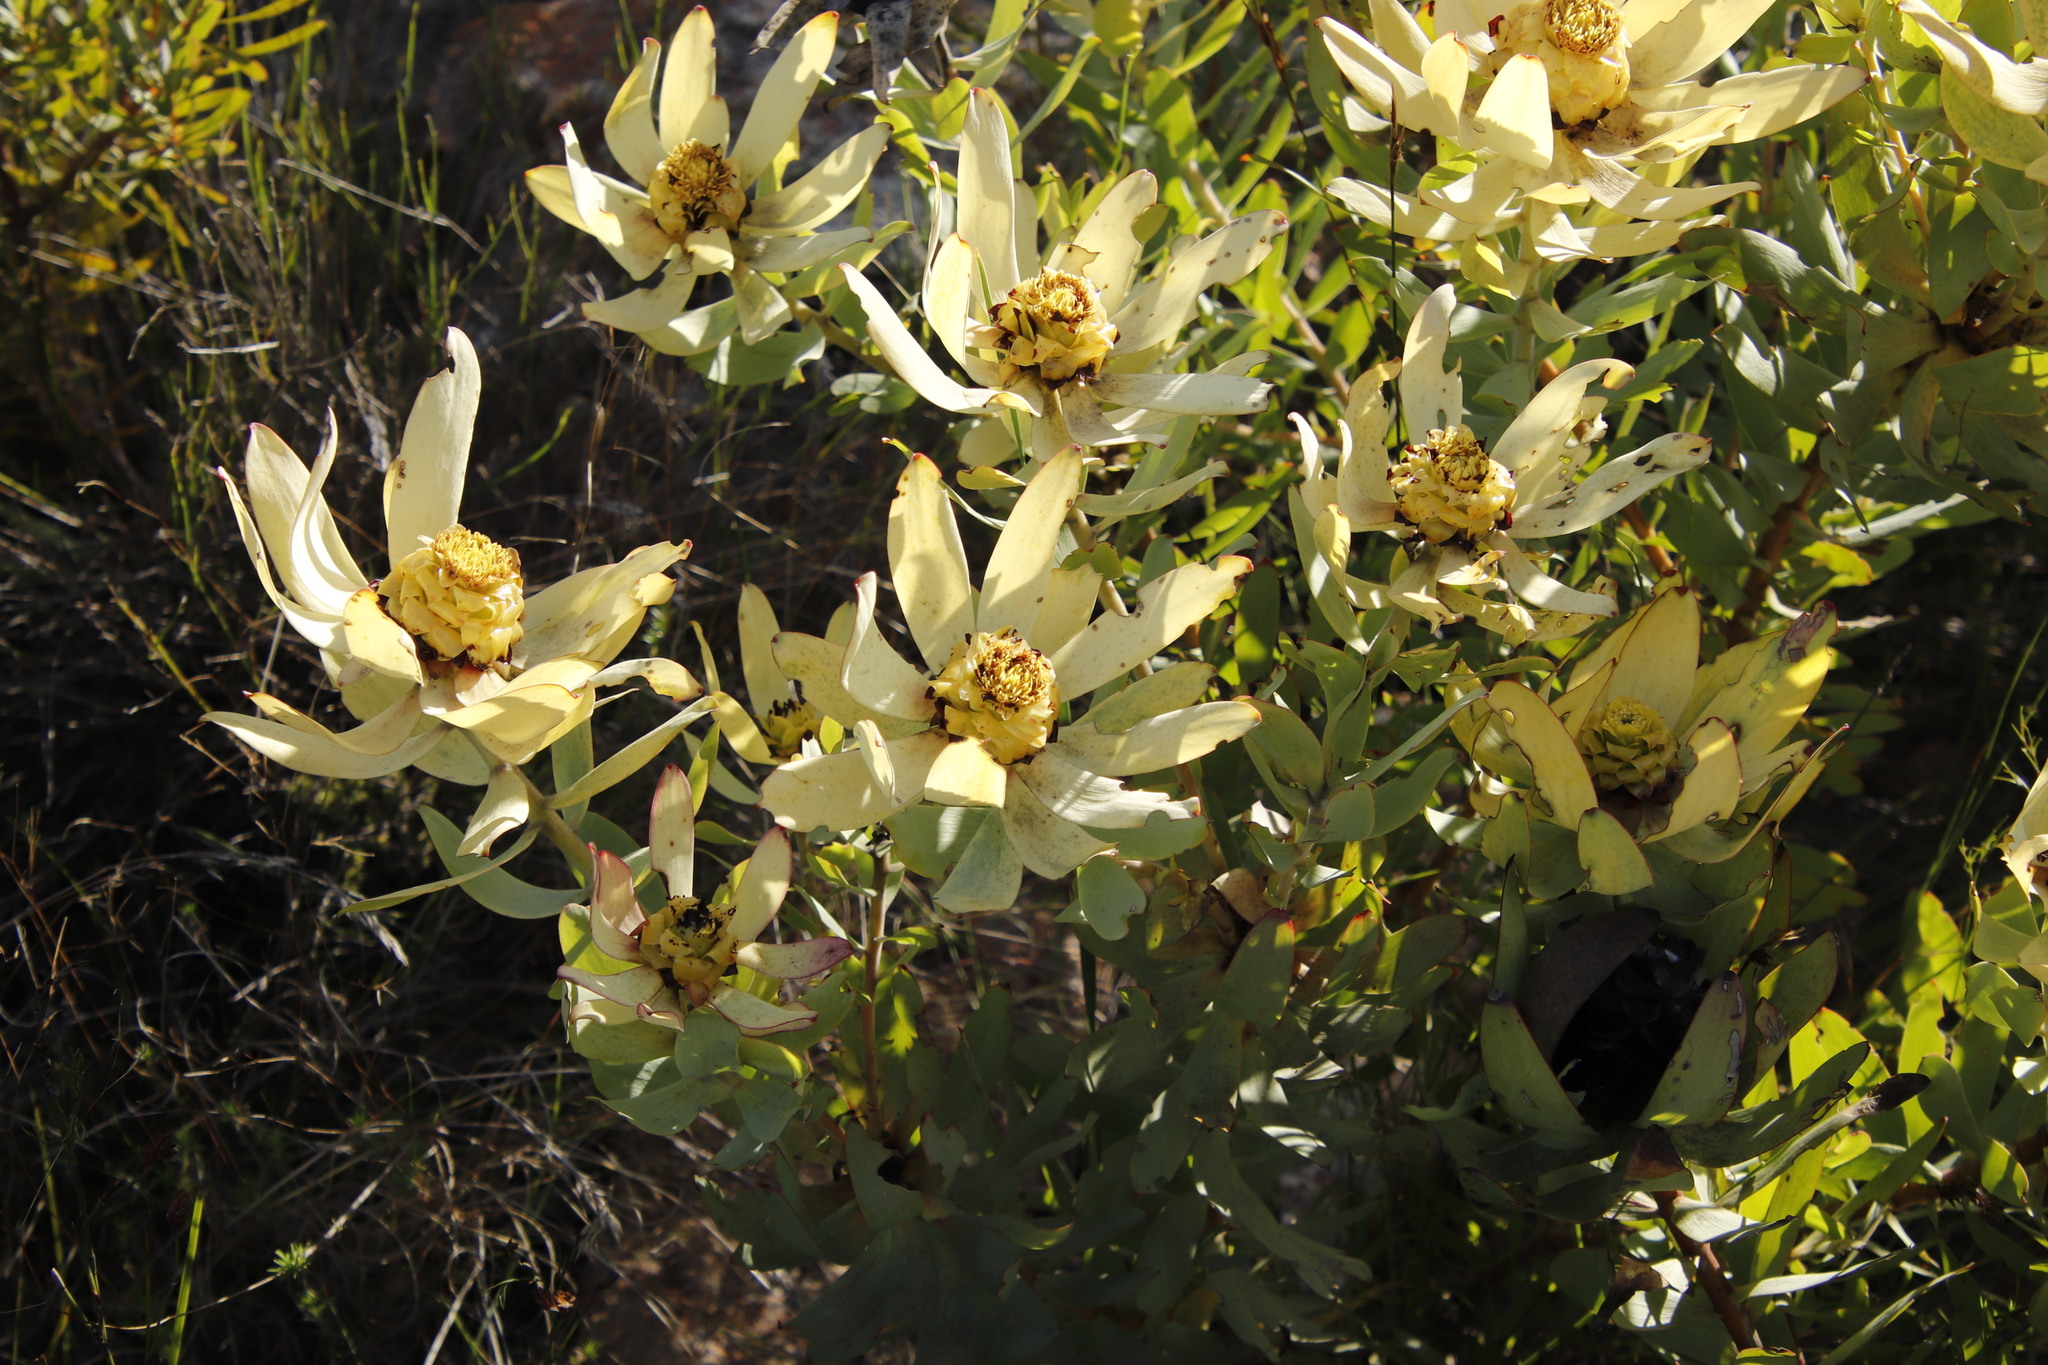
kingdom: Plantae
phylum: Tracheophyta
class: Magnoliopsida
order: Proteales
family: Proteaceae
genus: Leucadendron
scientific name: Leucadendron tinctum
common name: Spicy conebush
